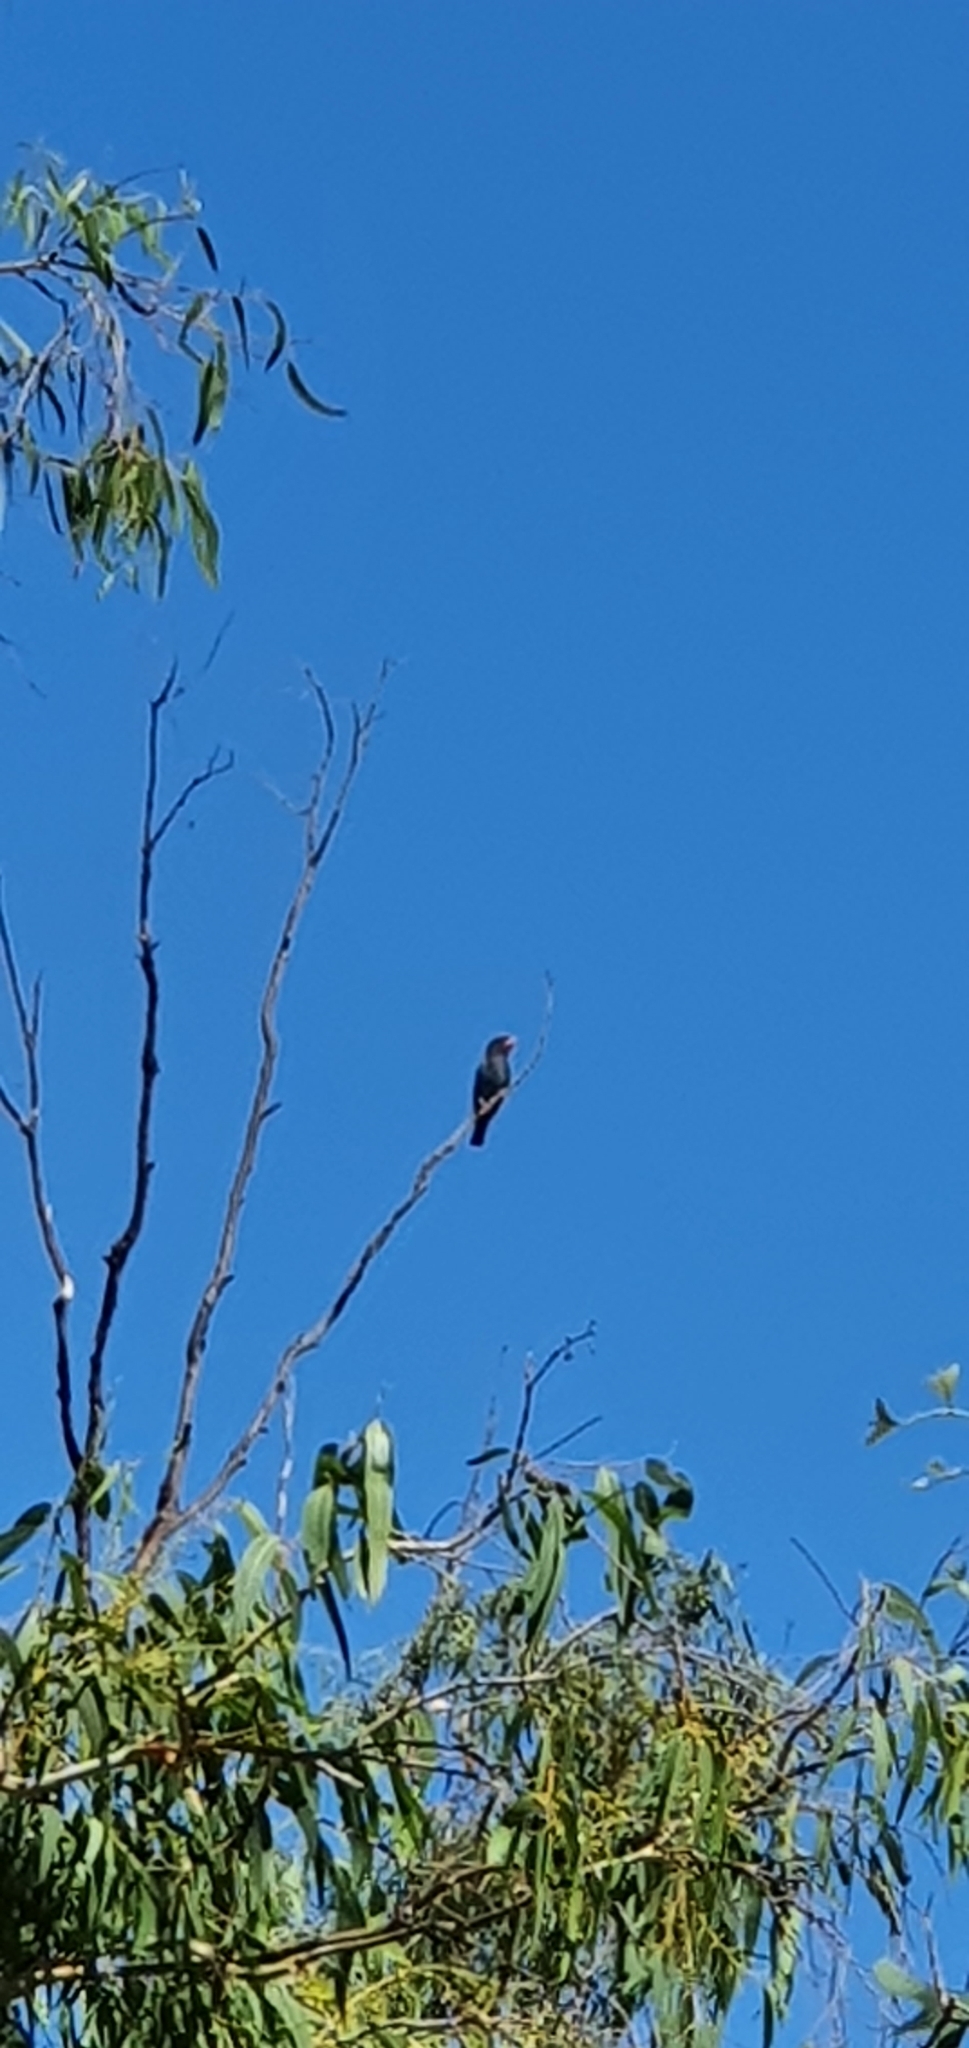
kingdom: Animalia
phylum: Chordata
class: Aves
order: Coraciiformes
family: Coraciidae
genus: Eurystomus
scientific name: Eurystomus orientalis
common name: Oriental dollarbird
